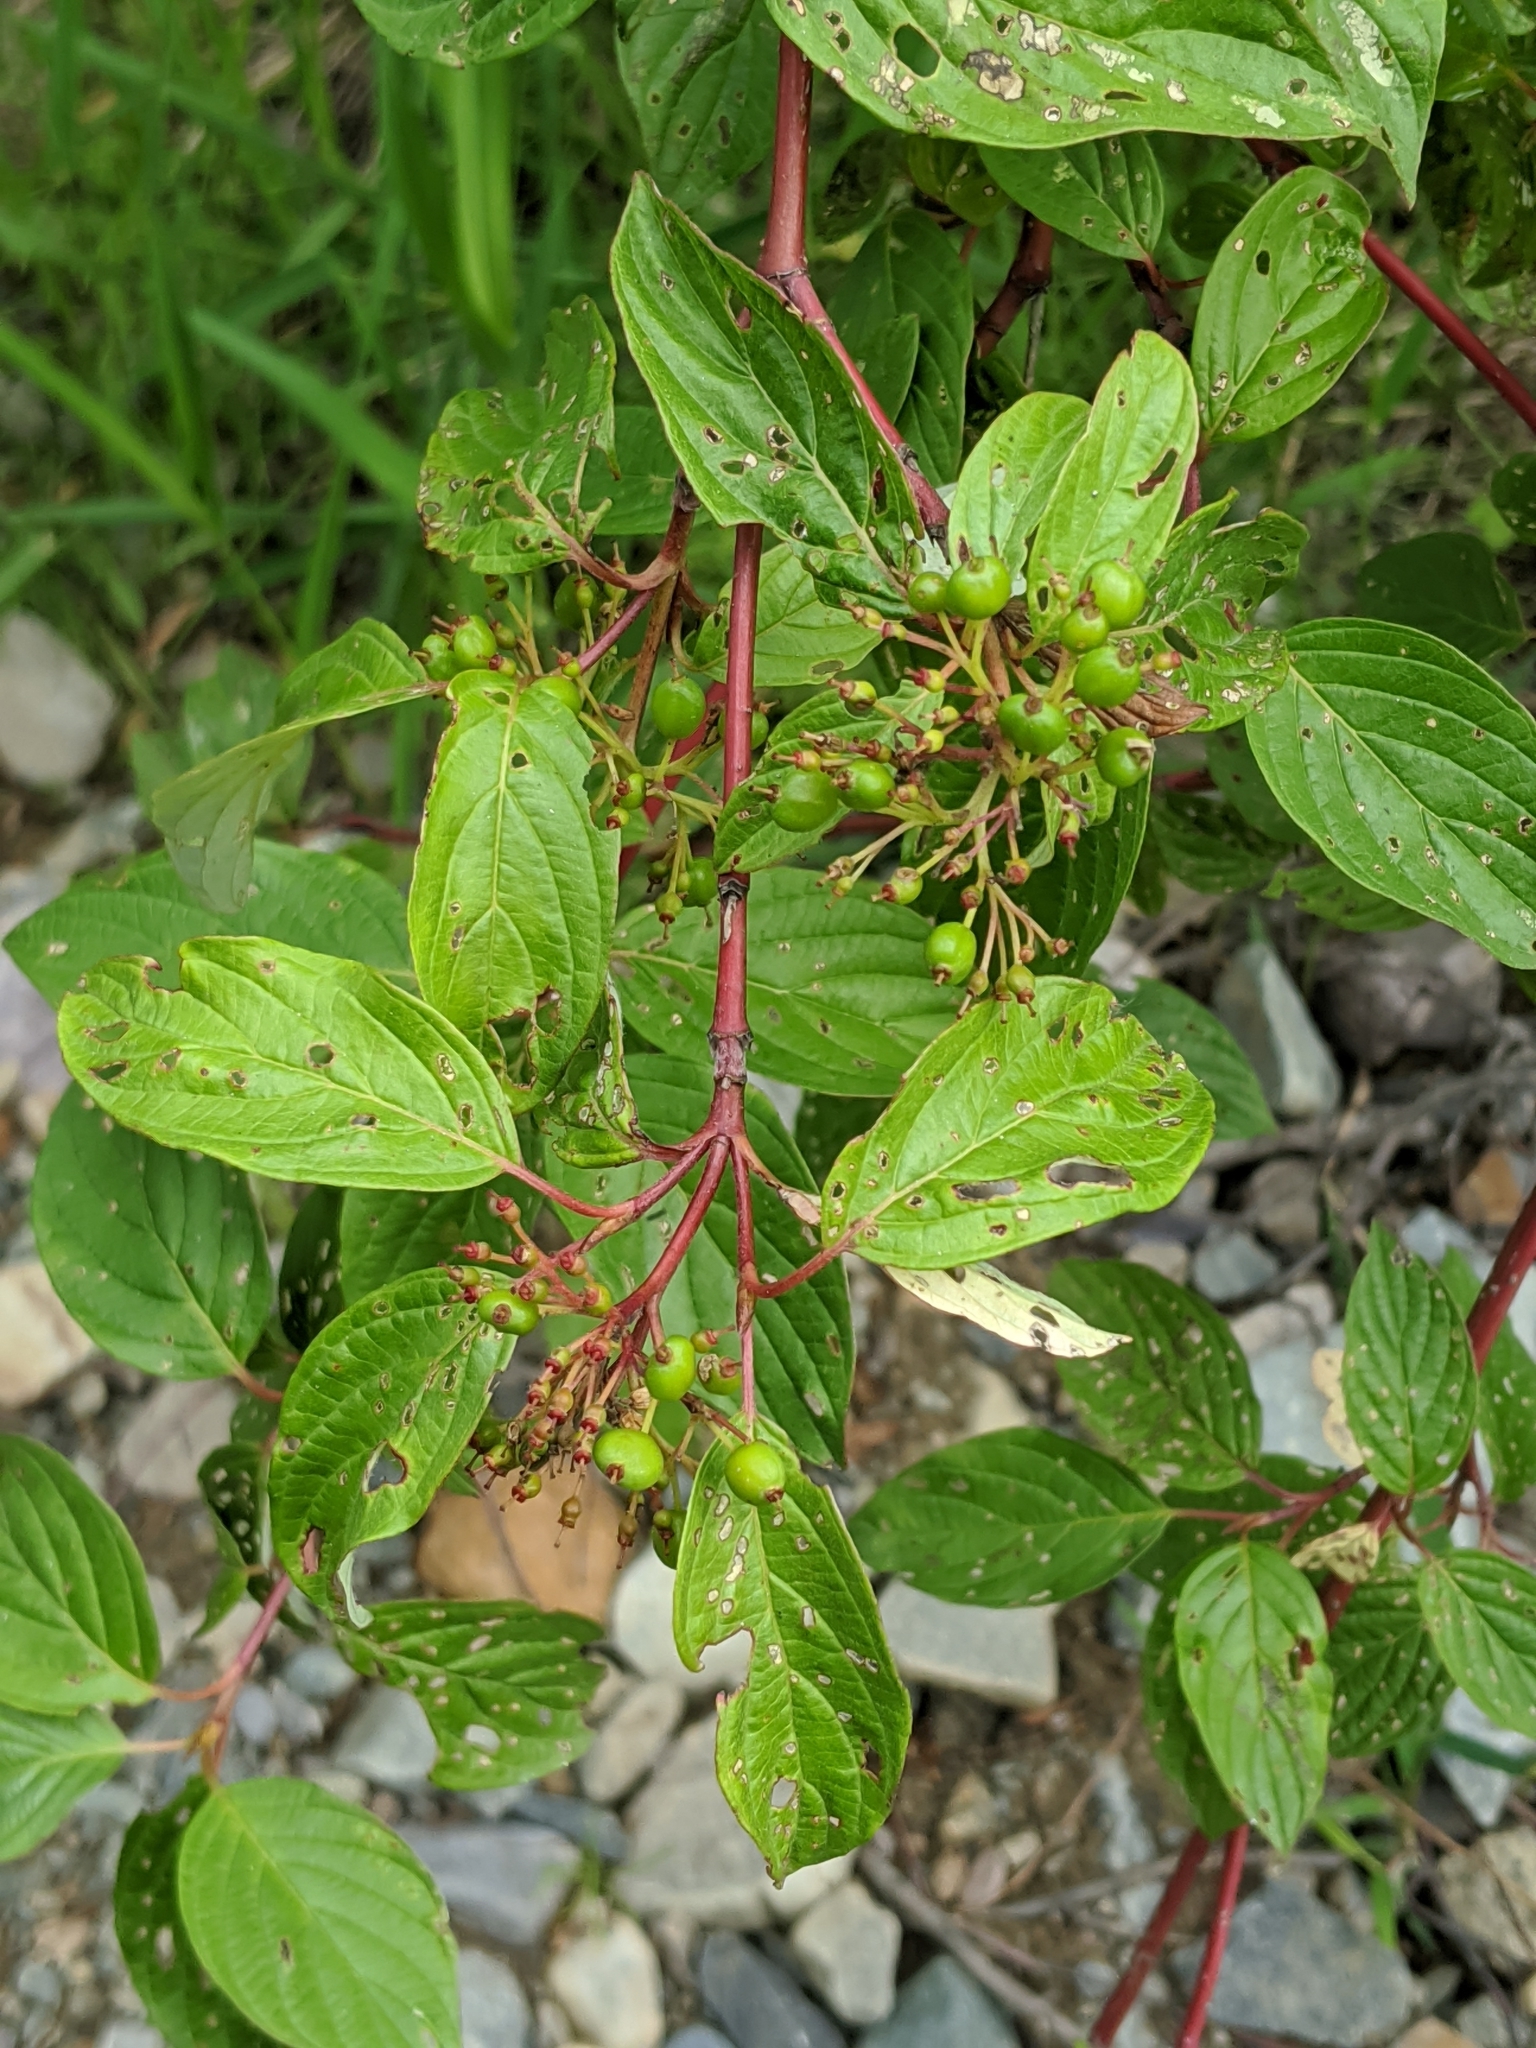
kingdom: Plantae
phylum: Tracheophyta
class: Magnoliopsida
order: Cornales
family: Cornaceae
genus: Cornus
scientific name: Cornus sericea
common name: Red-osier dogwood
